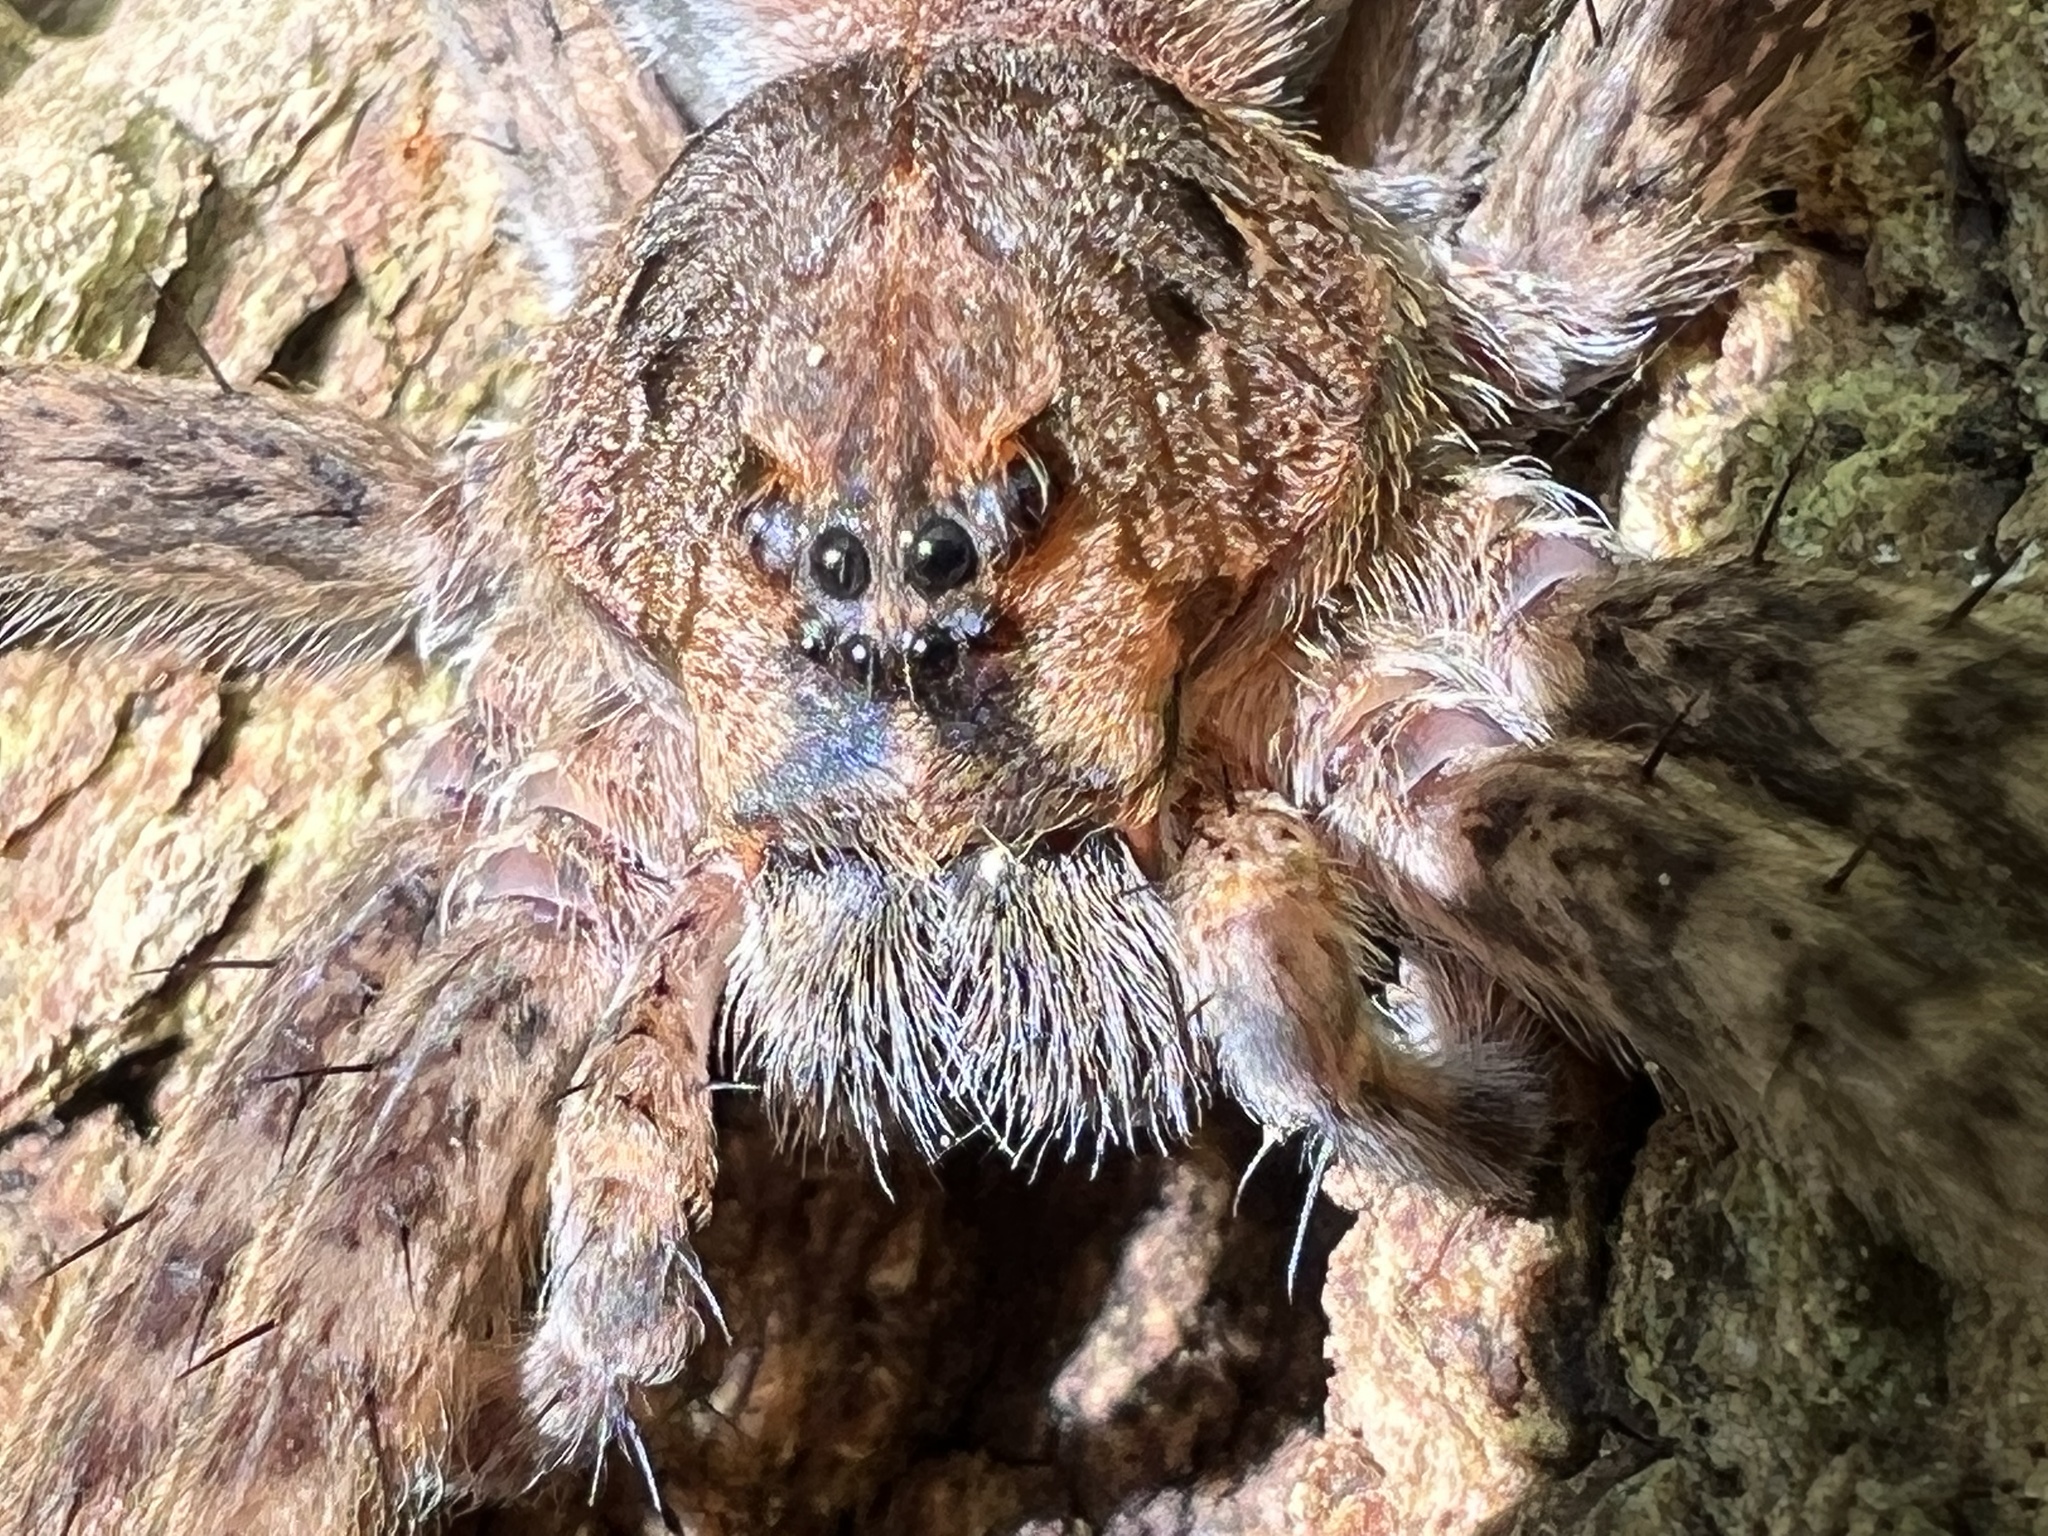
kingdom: Animalia
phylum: Arthropoda
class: Arachnida
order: Araneae
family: Pisauridae
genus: Dolomedes
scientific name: Dolomedes tenebrosus
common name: Dark fishing spider
